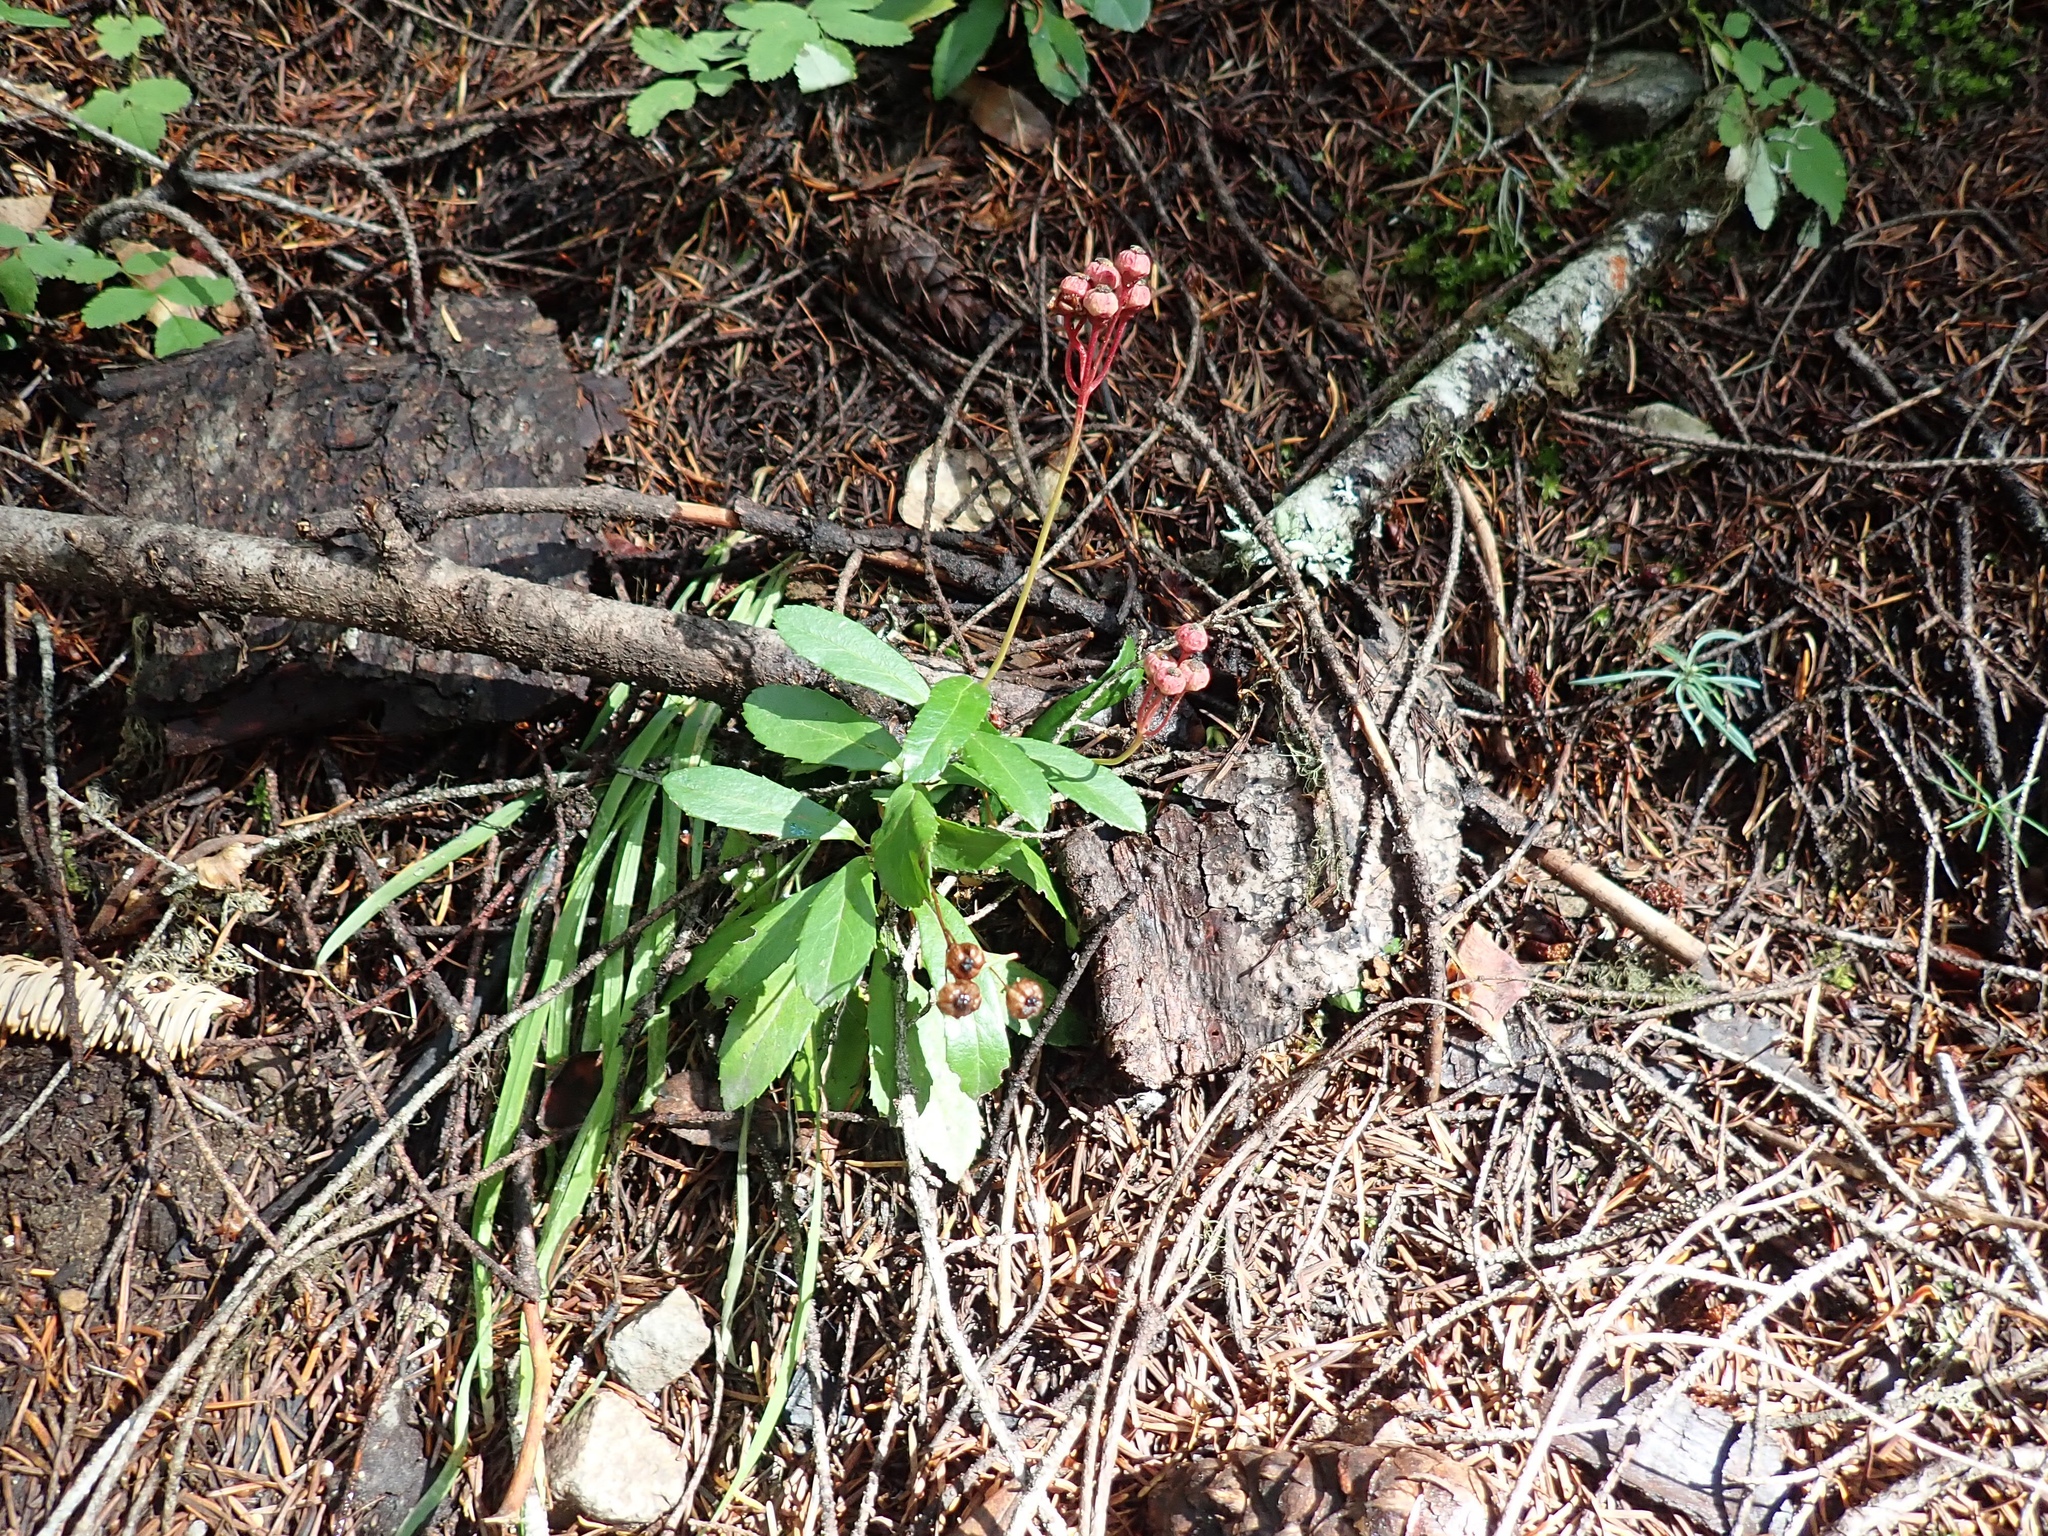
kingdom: Plantae
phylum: Tracheophyta
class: Magnoliopsida
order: Ericales
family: Ericaceae
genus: Chimaphila
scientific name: Chimaphila umbellata
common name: Pipsissewa
